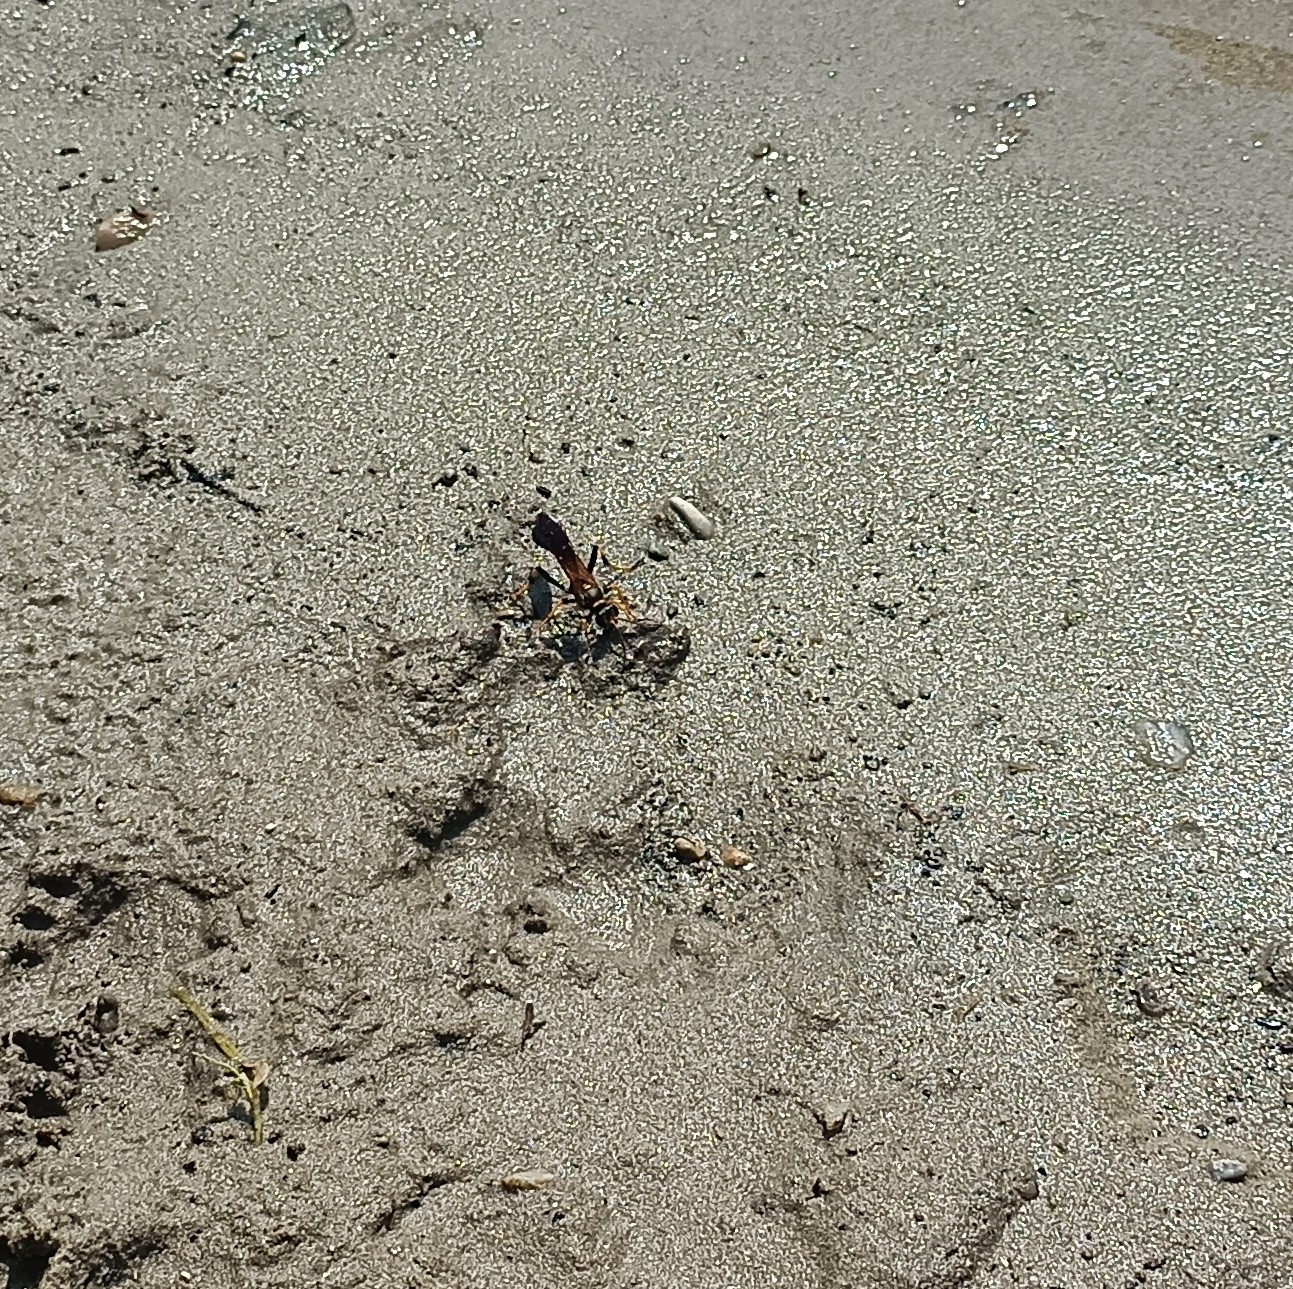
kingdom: Animalia
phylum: Arthropoda
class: Insecta
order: Hymenoptera
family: Sphecidae
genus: Sceliphron
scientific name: Sceliphron caementarium
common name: Mud dauber
